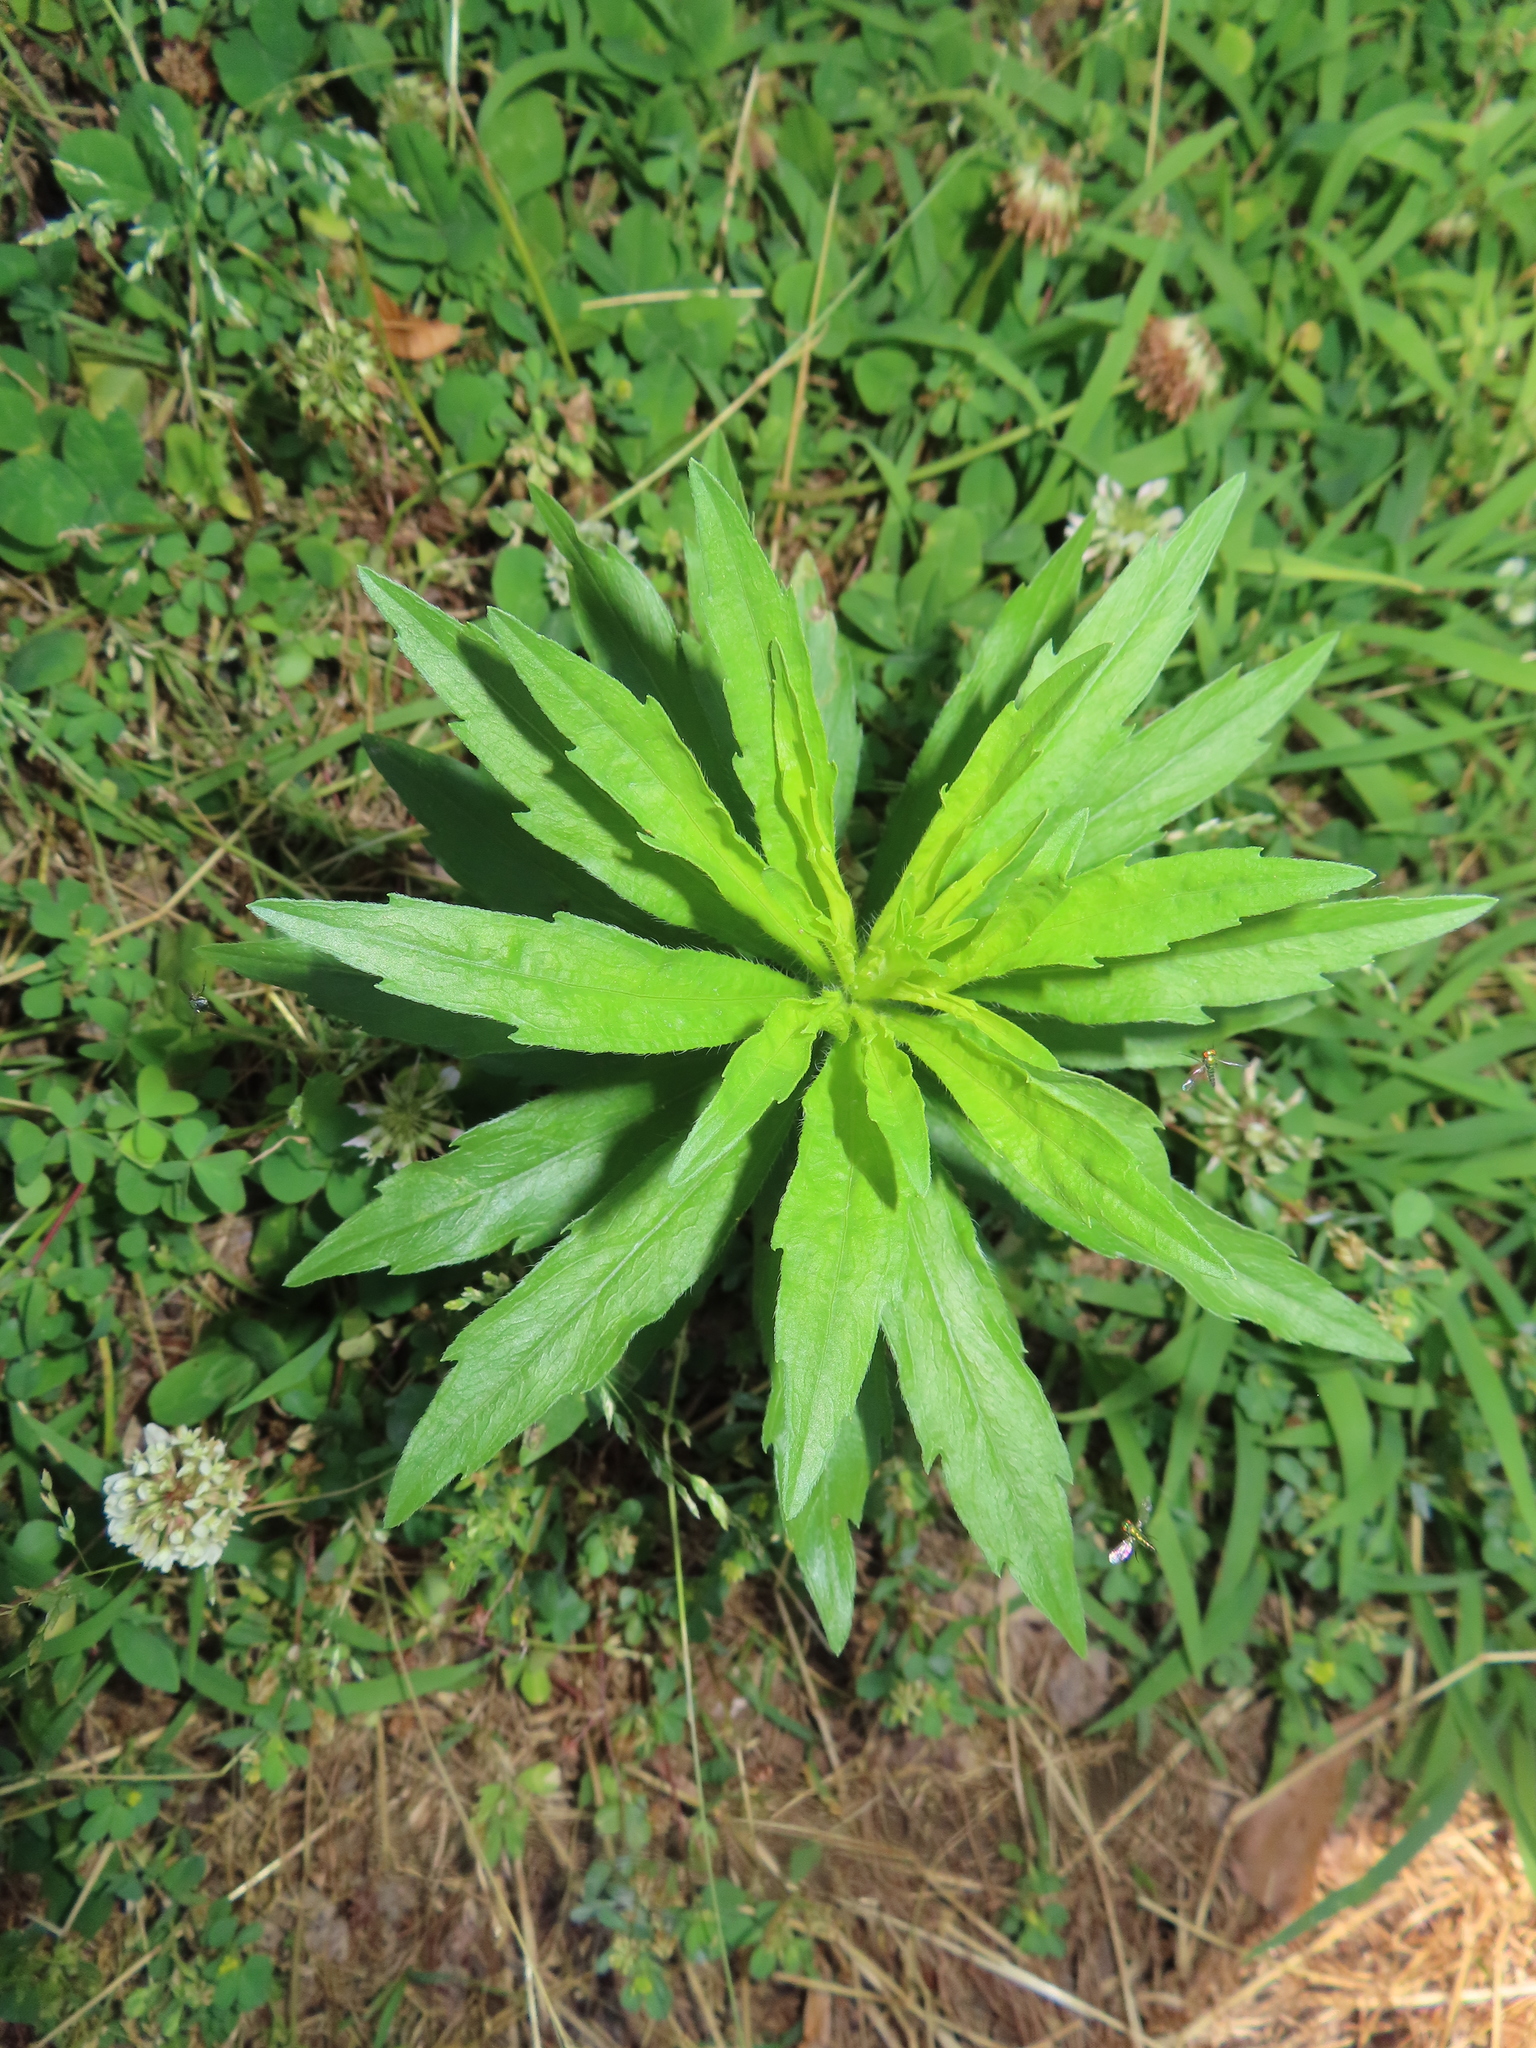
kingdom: Plantae
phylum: Tracheophyta
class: Magnoliopsida
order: Asterales
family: Asteraceae
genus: Erigeron
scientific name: Erigeron canadensis
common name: Canadian fleabane
